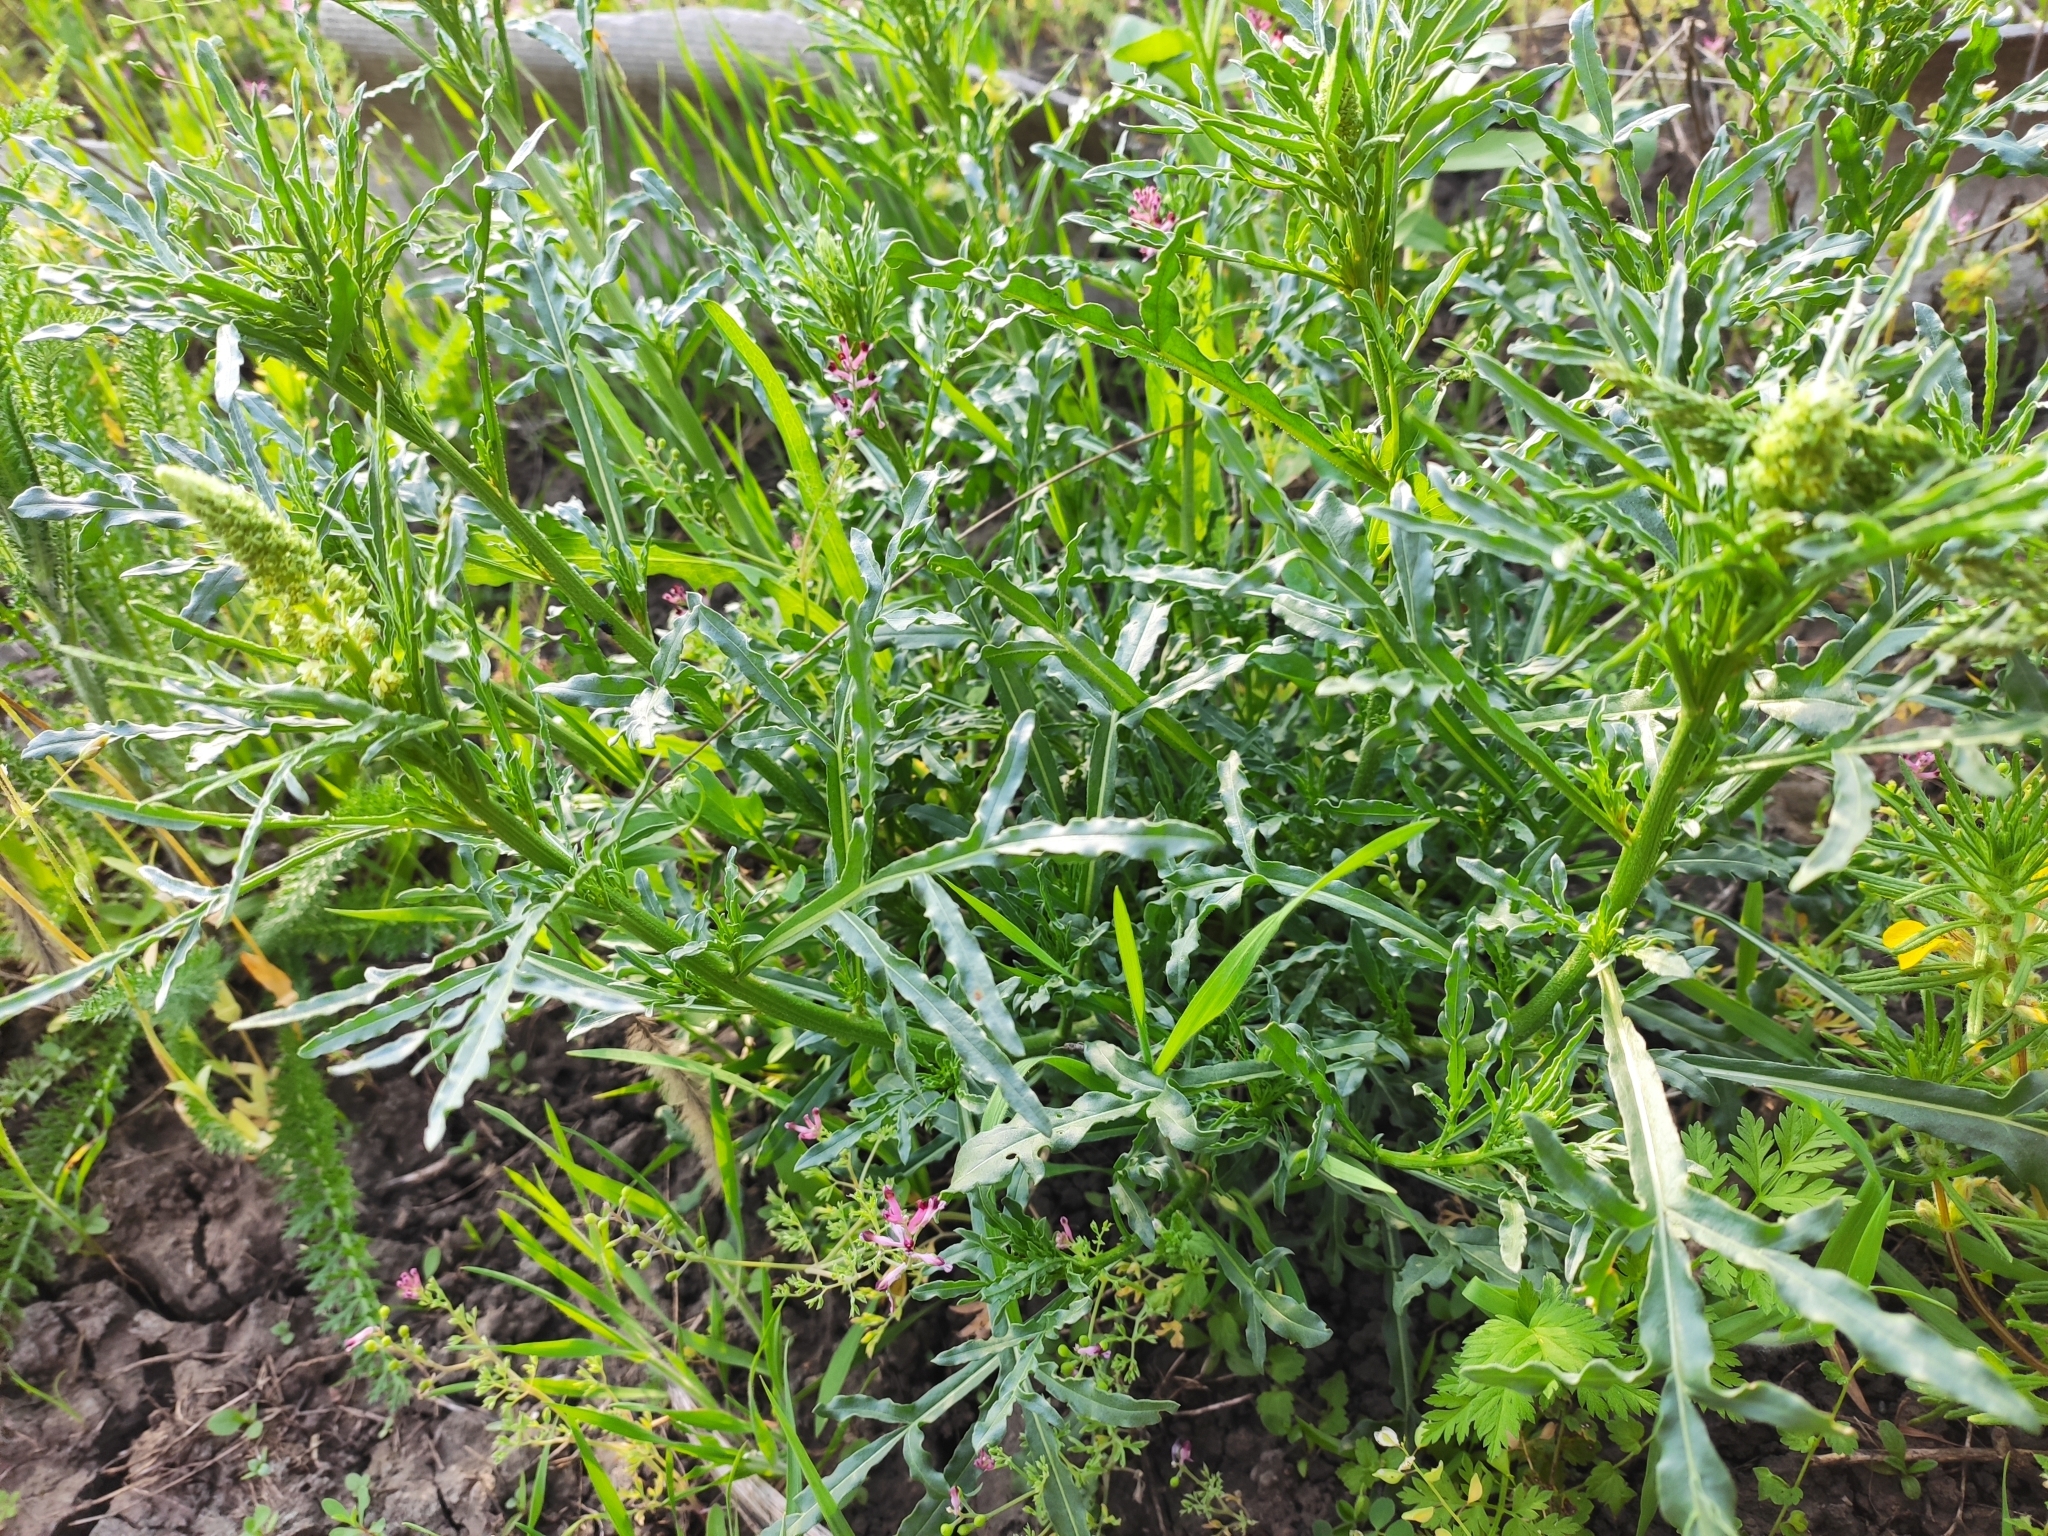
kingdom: Plantae
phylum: Tracheophyta
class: Magnoliopsida
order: Brassicales
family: Resedaceae
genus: Reseda
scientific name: Reseda lutea
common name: Wild mignonette
